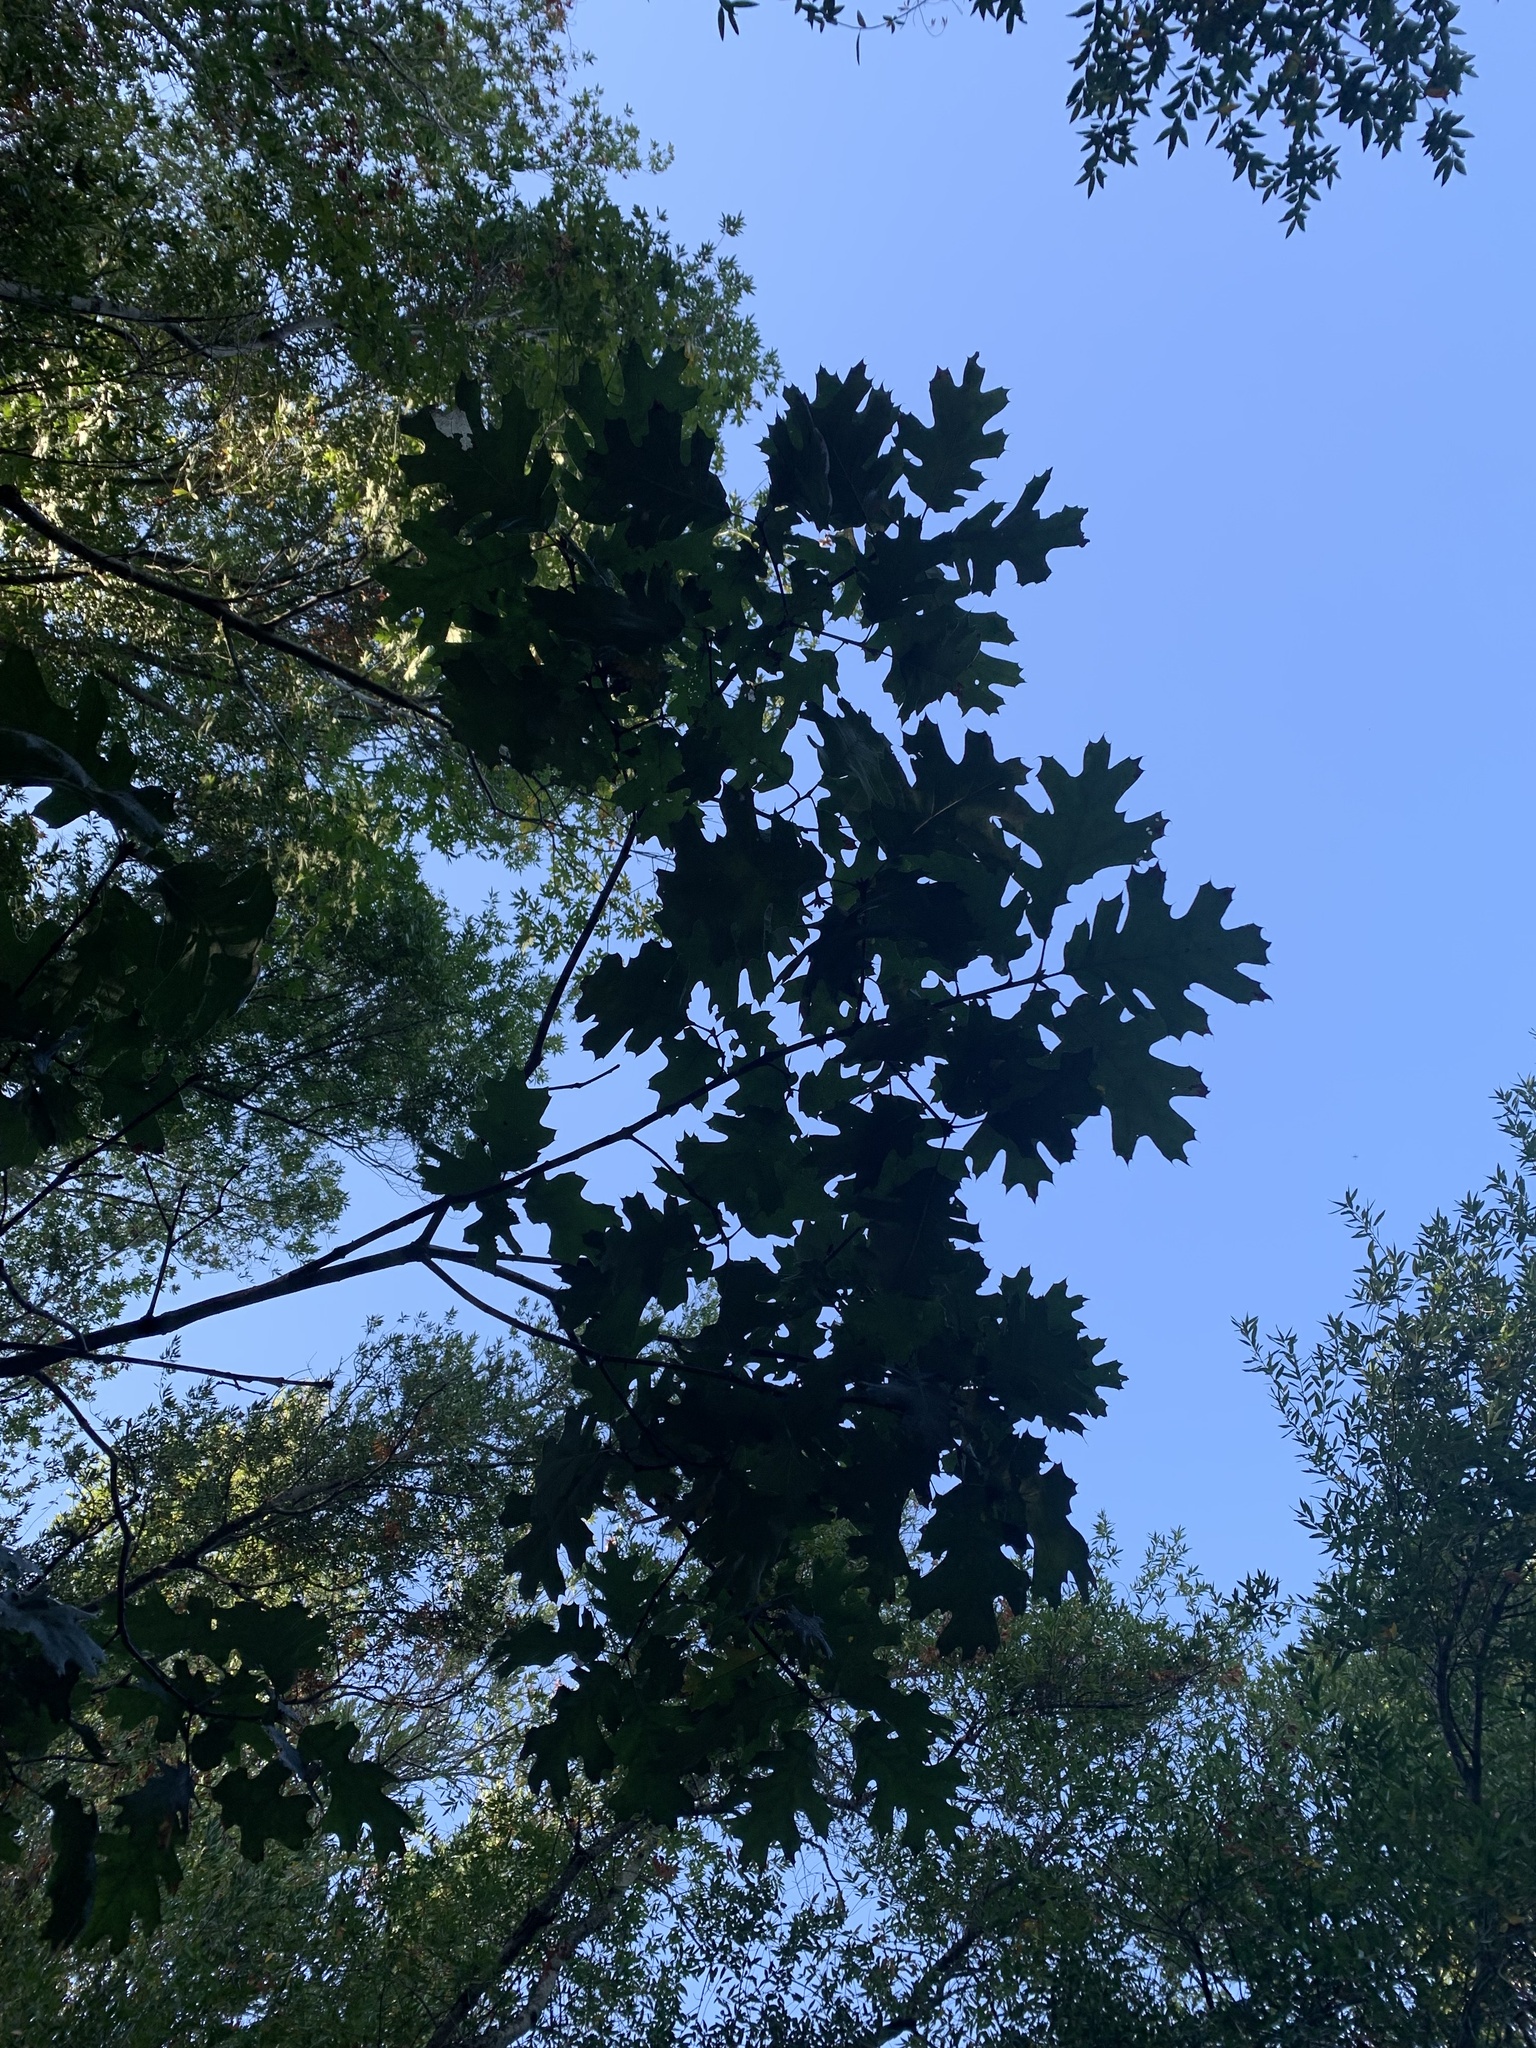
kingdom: Plantae
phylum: Tracheophyta
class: Magnoliopsida
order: Fagales
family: Fagaceae
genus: Quercus
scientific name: Quercus kelloggii
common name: California black oak
